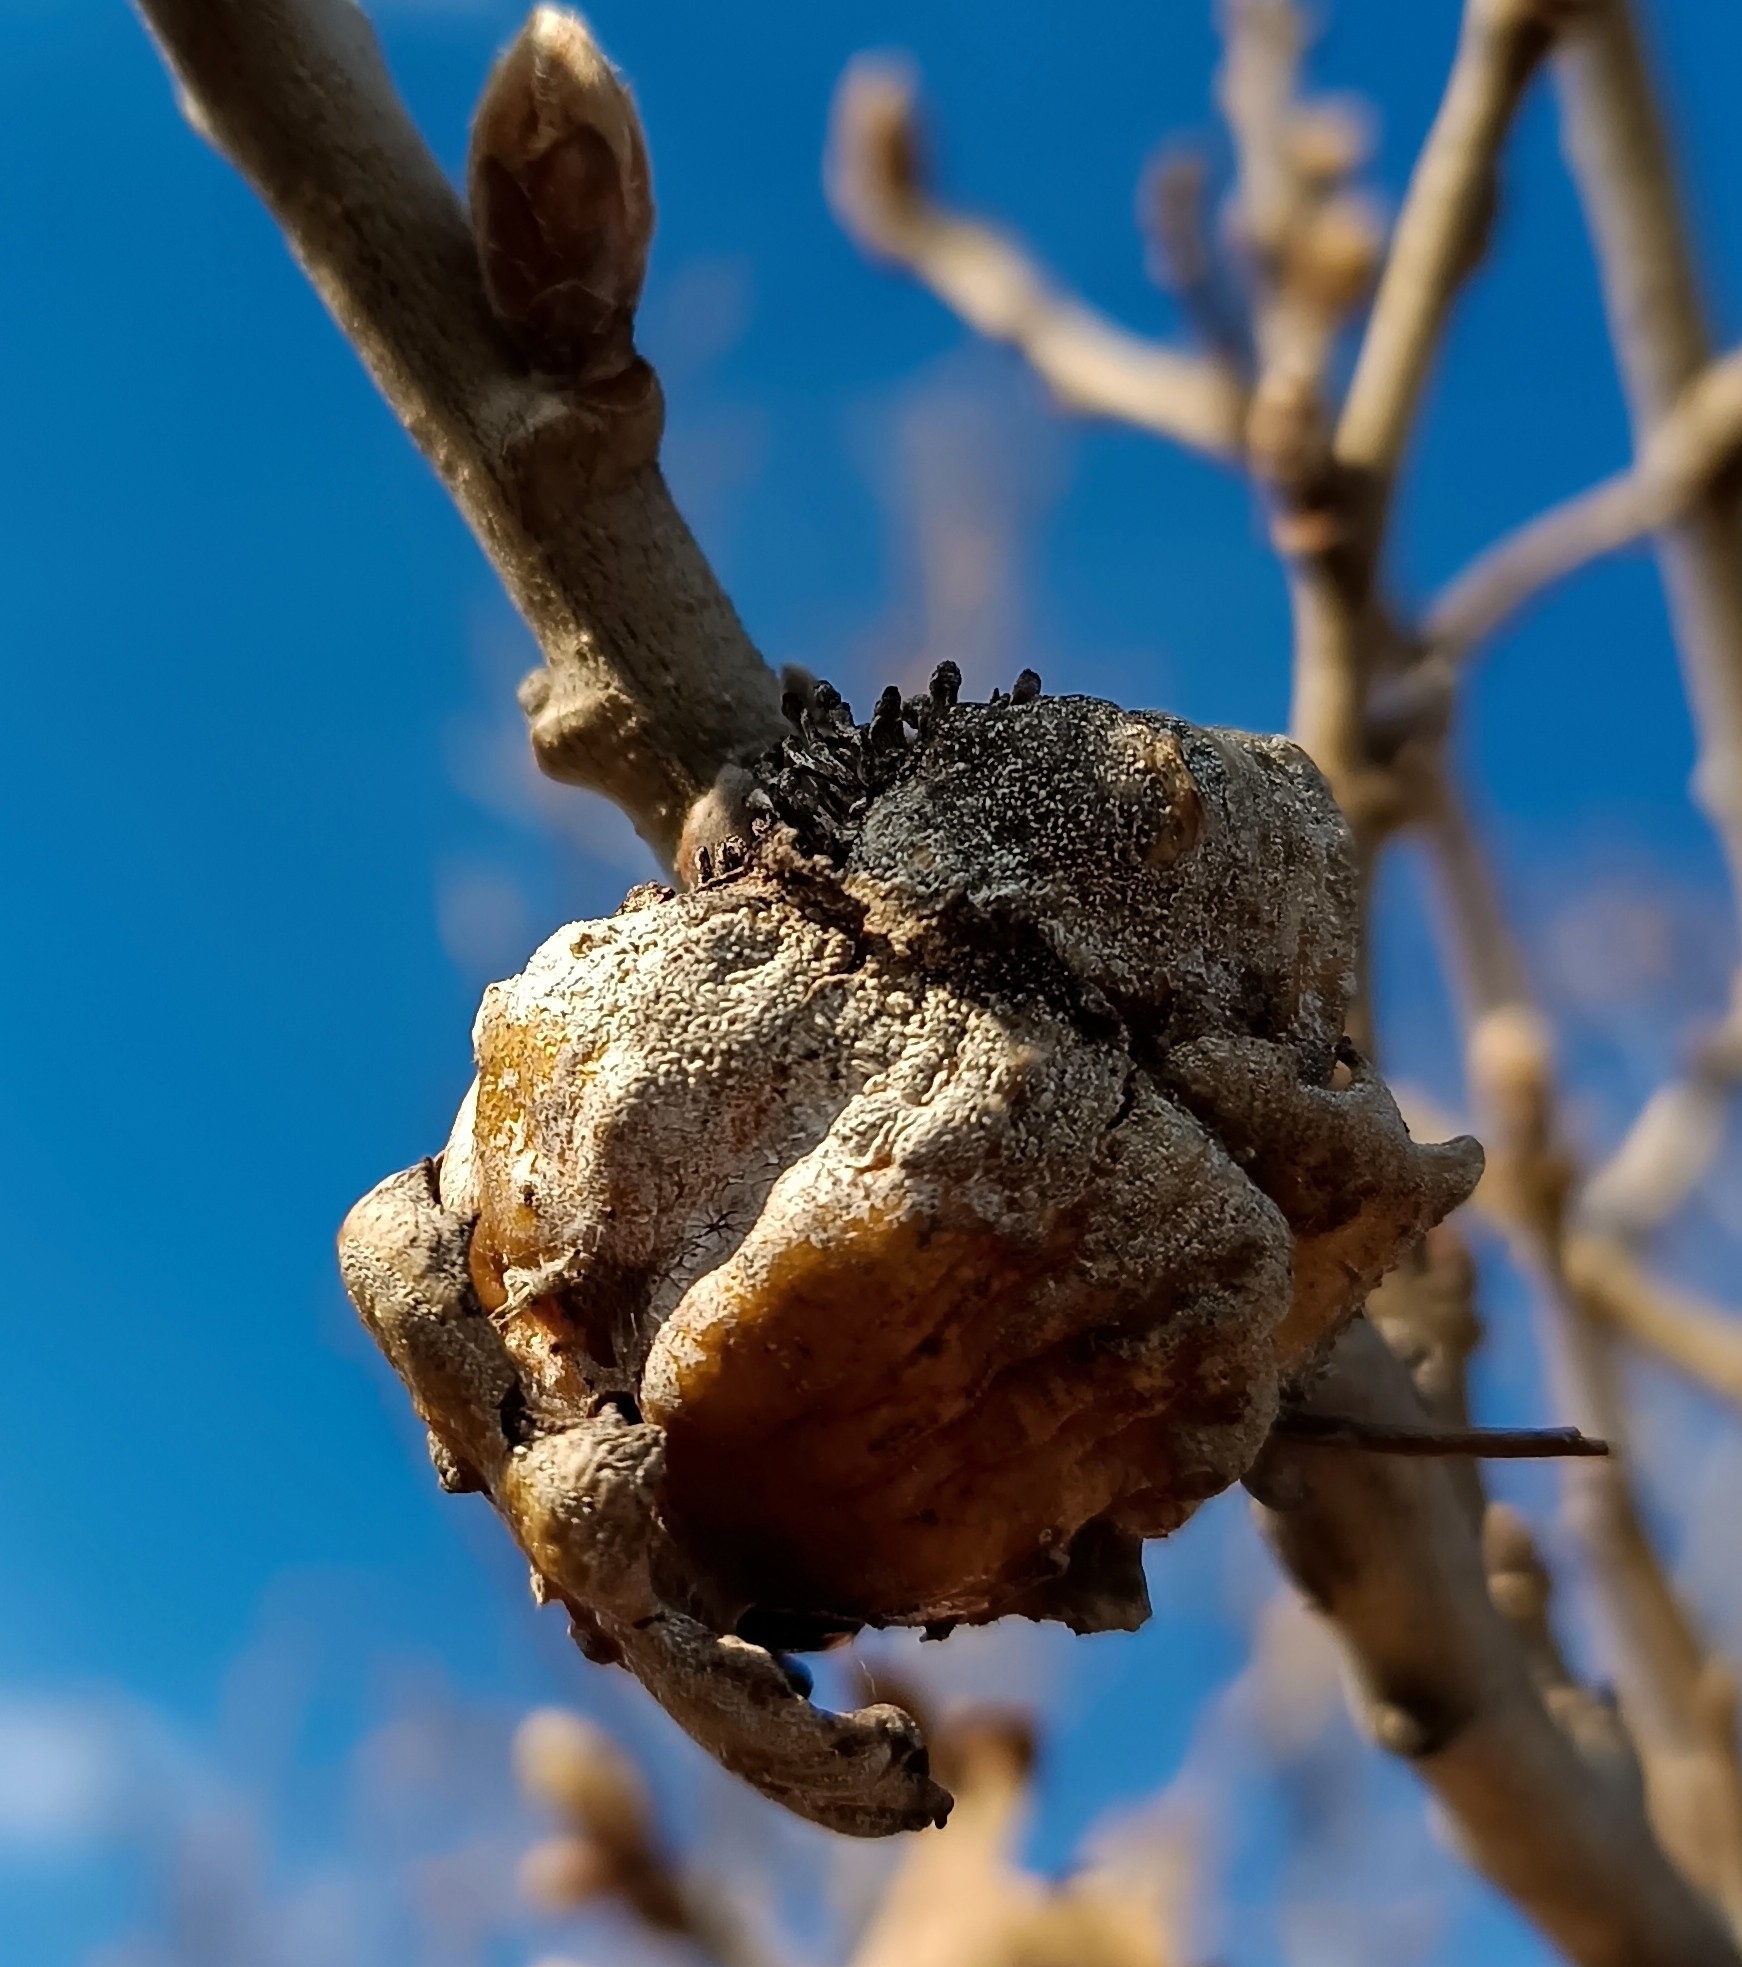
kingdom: Animalia
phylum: Arthropoda
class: Insecta
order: Hymenoptera
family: Cynipidae
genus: Andricus
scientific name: Andricus dentimitratus
